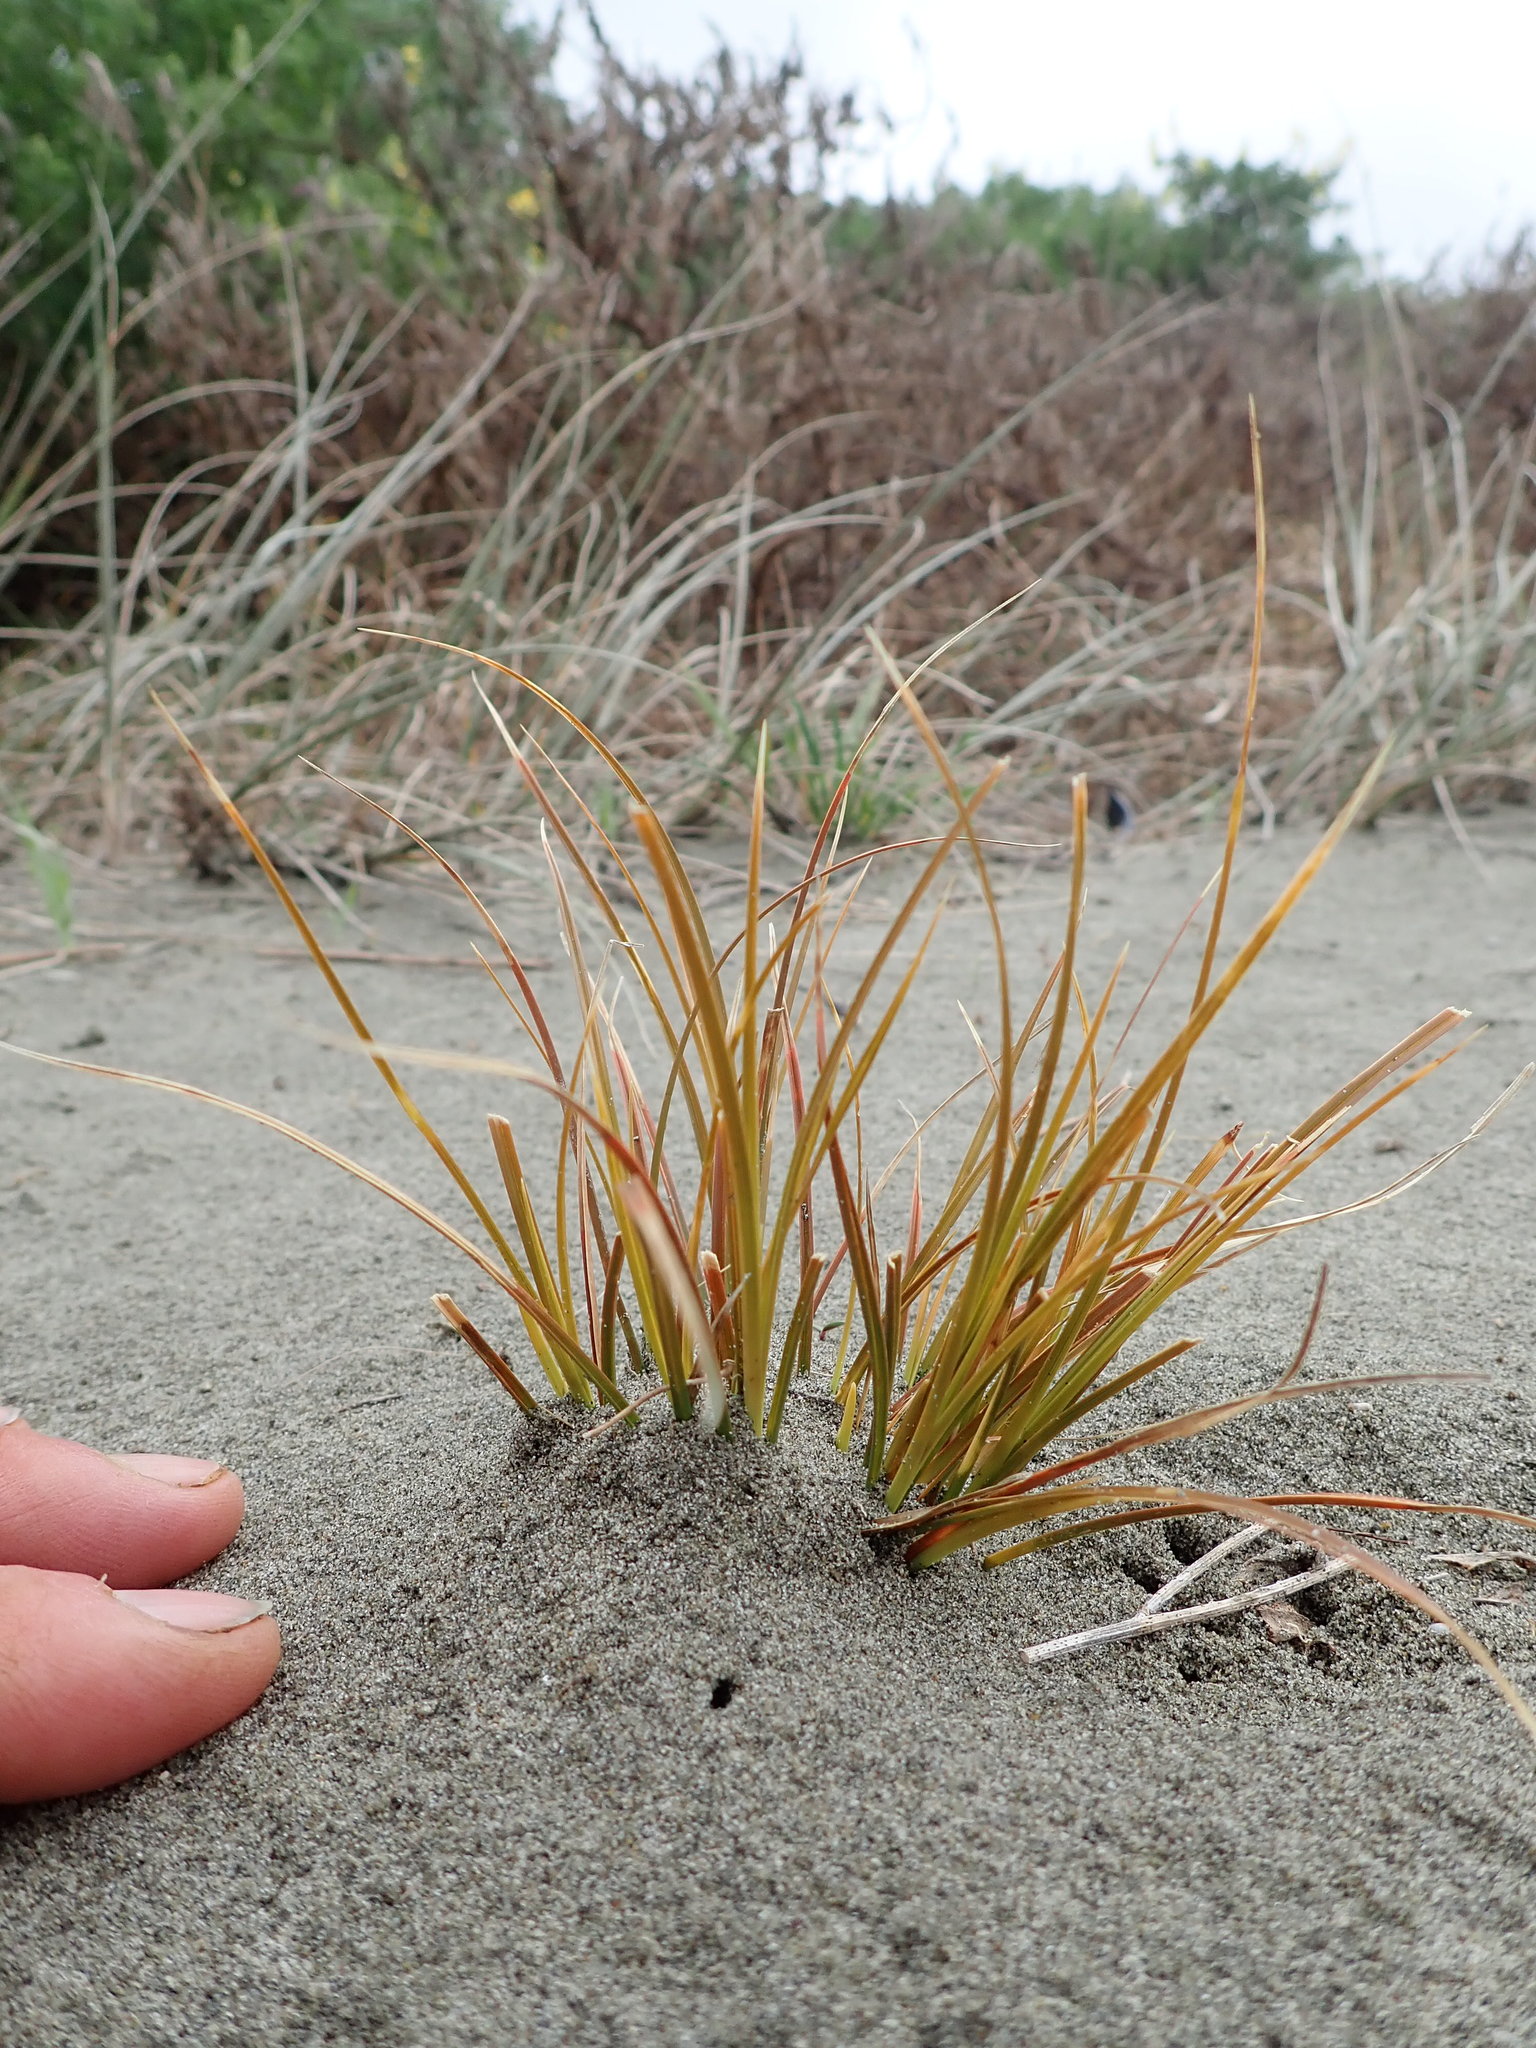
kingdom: Plantae
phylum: Tracheophyta
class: Liliopsida
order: Poales
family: Cyperaceae
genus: Ficinia
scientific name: Ficinia spiralis
